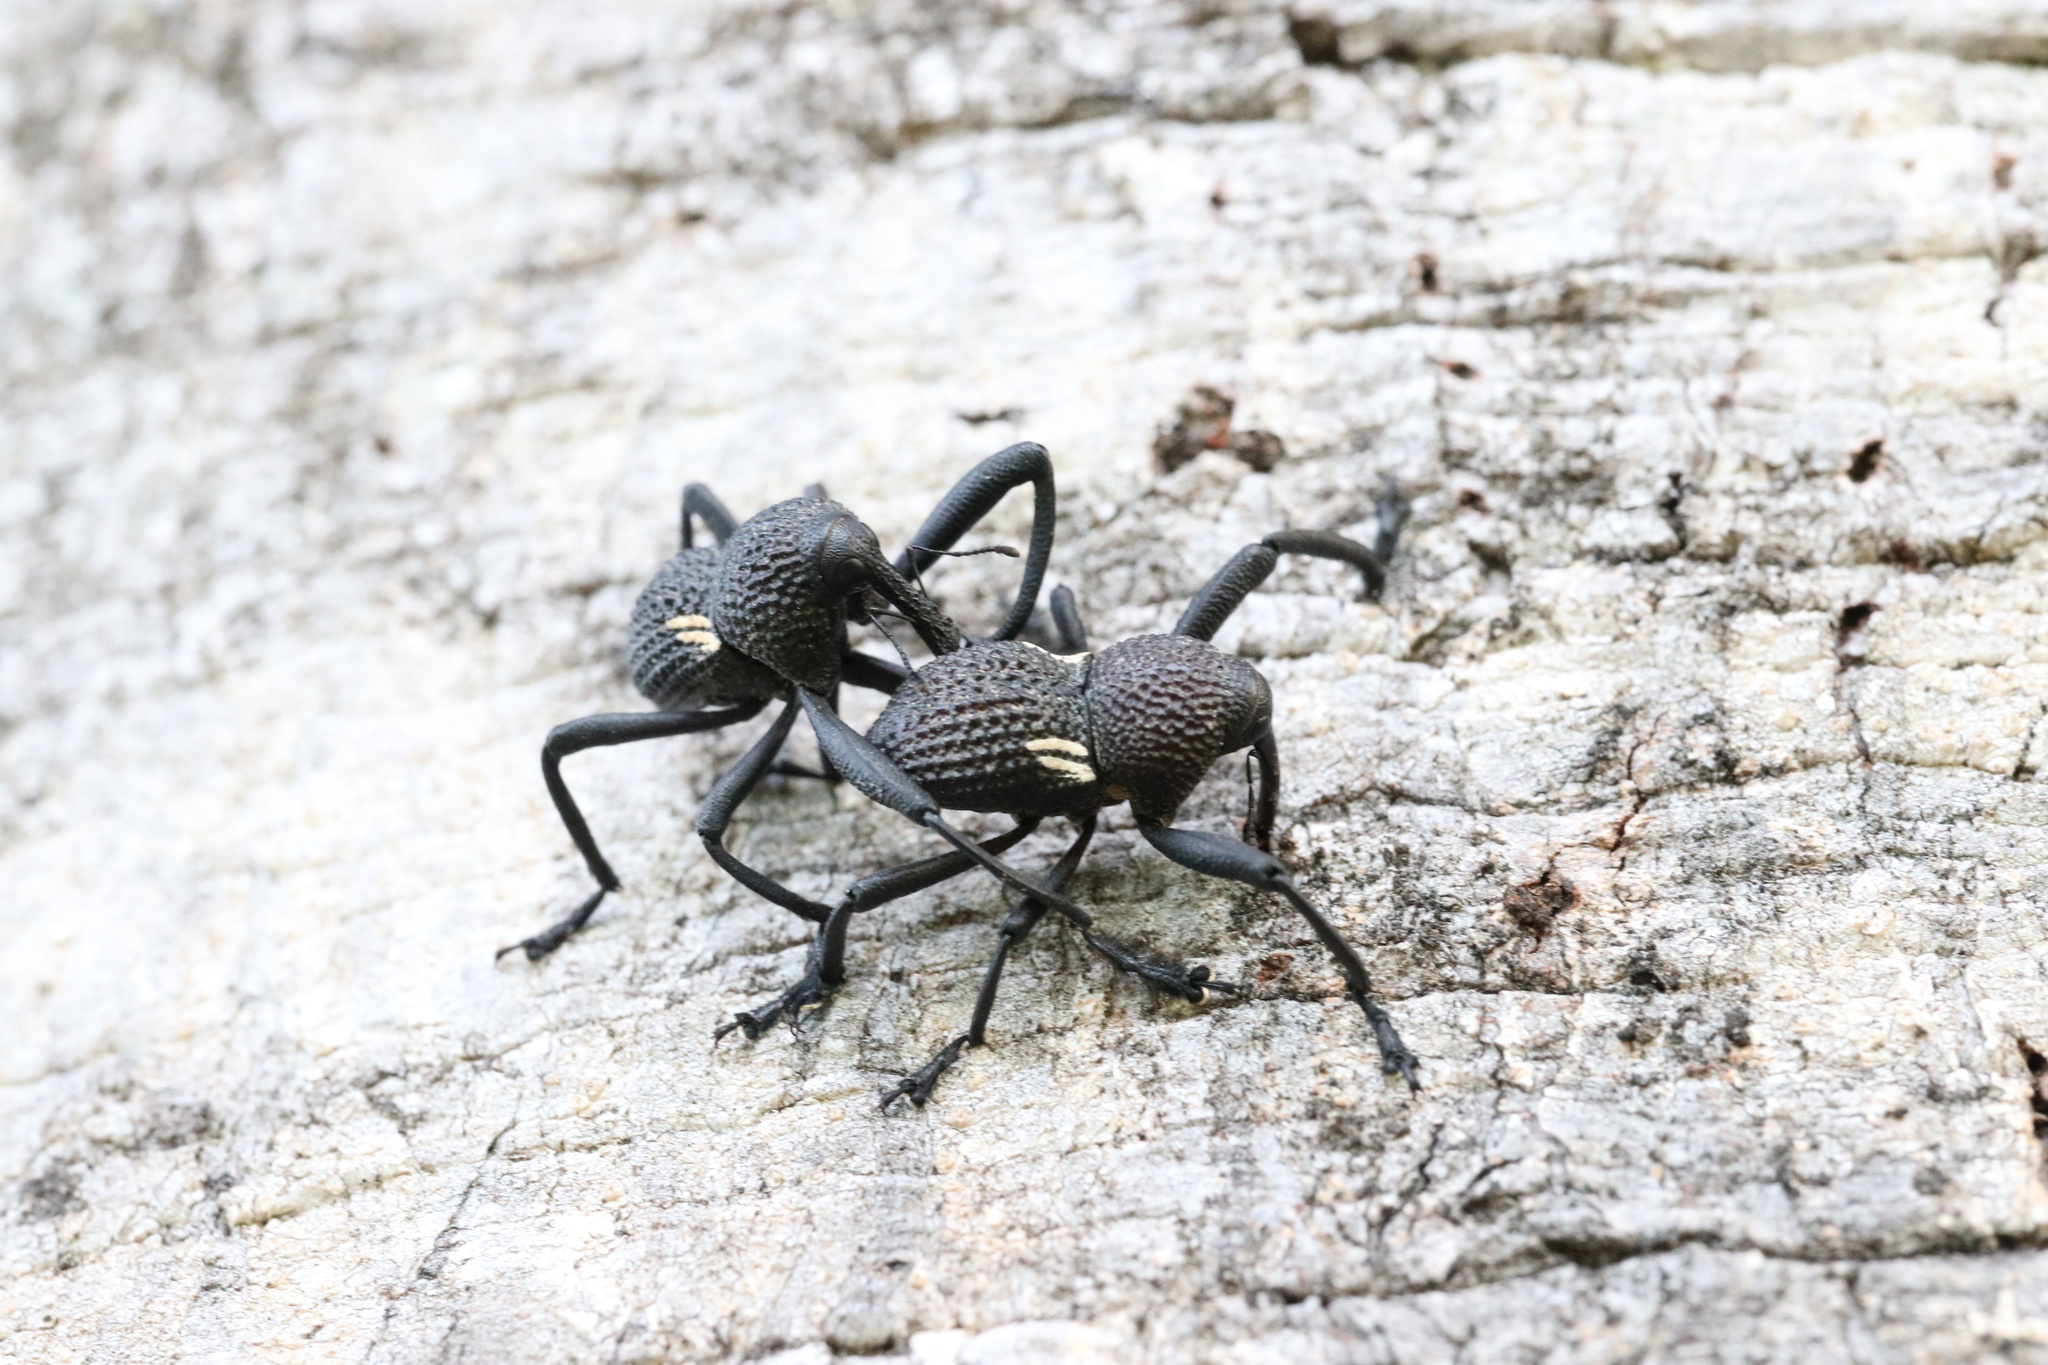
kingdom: Animalia
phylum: Arthropoda
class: Insecta
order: Coleoptera
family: Curculionidae
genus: Rhyephenes
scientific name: Rhyephenes humeralis
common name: Araè±ita chilena del pino
